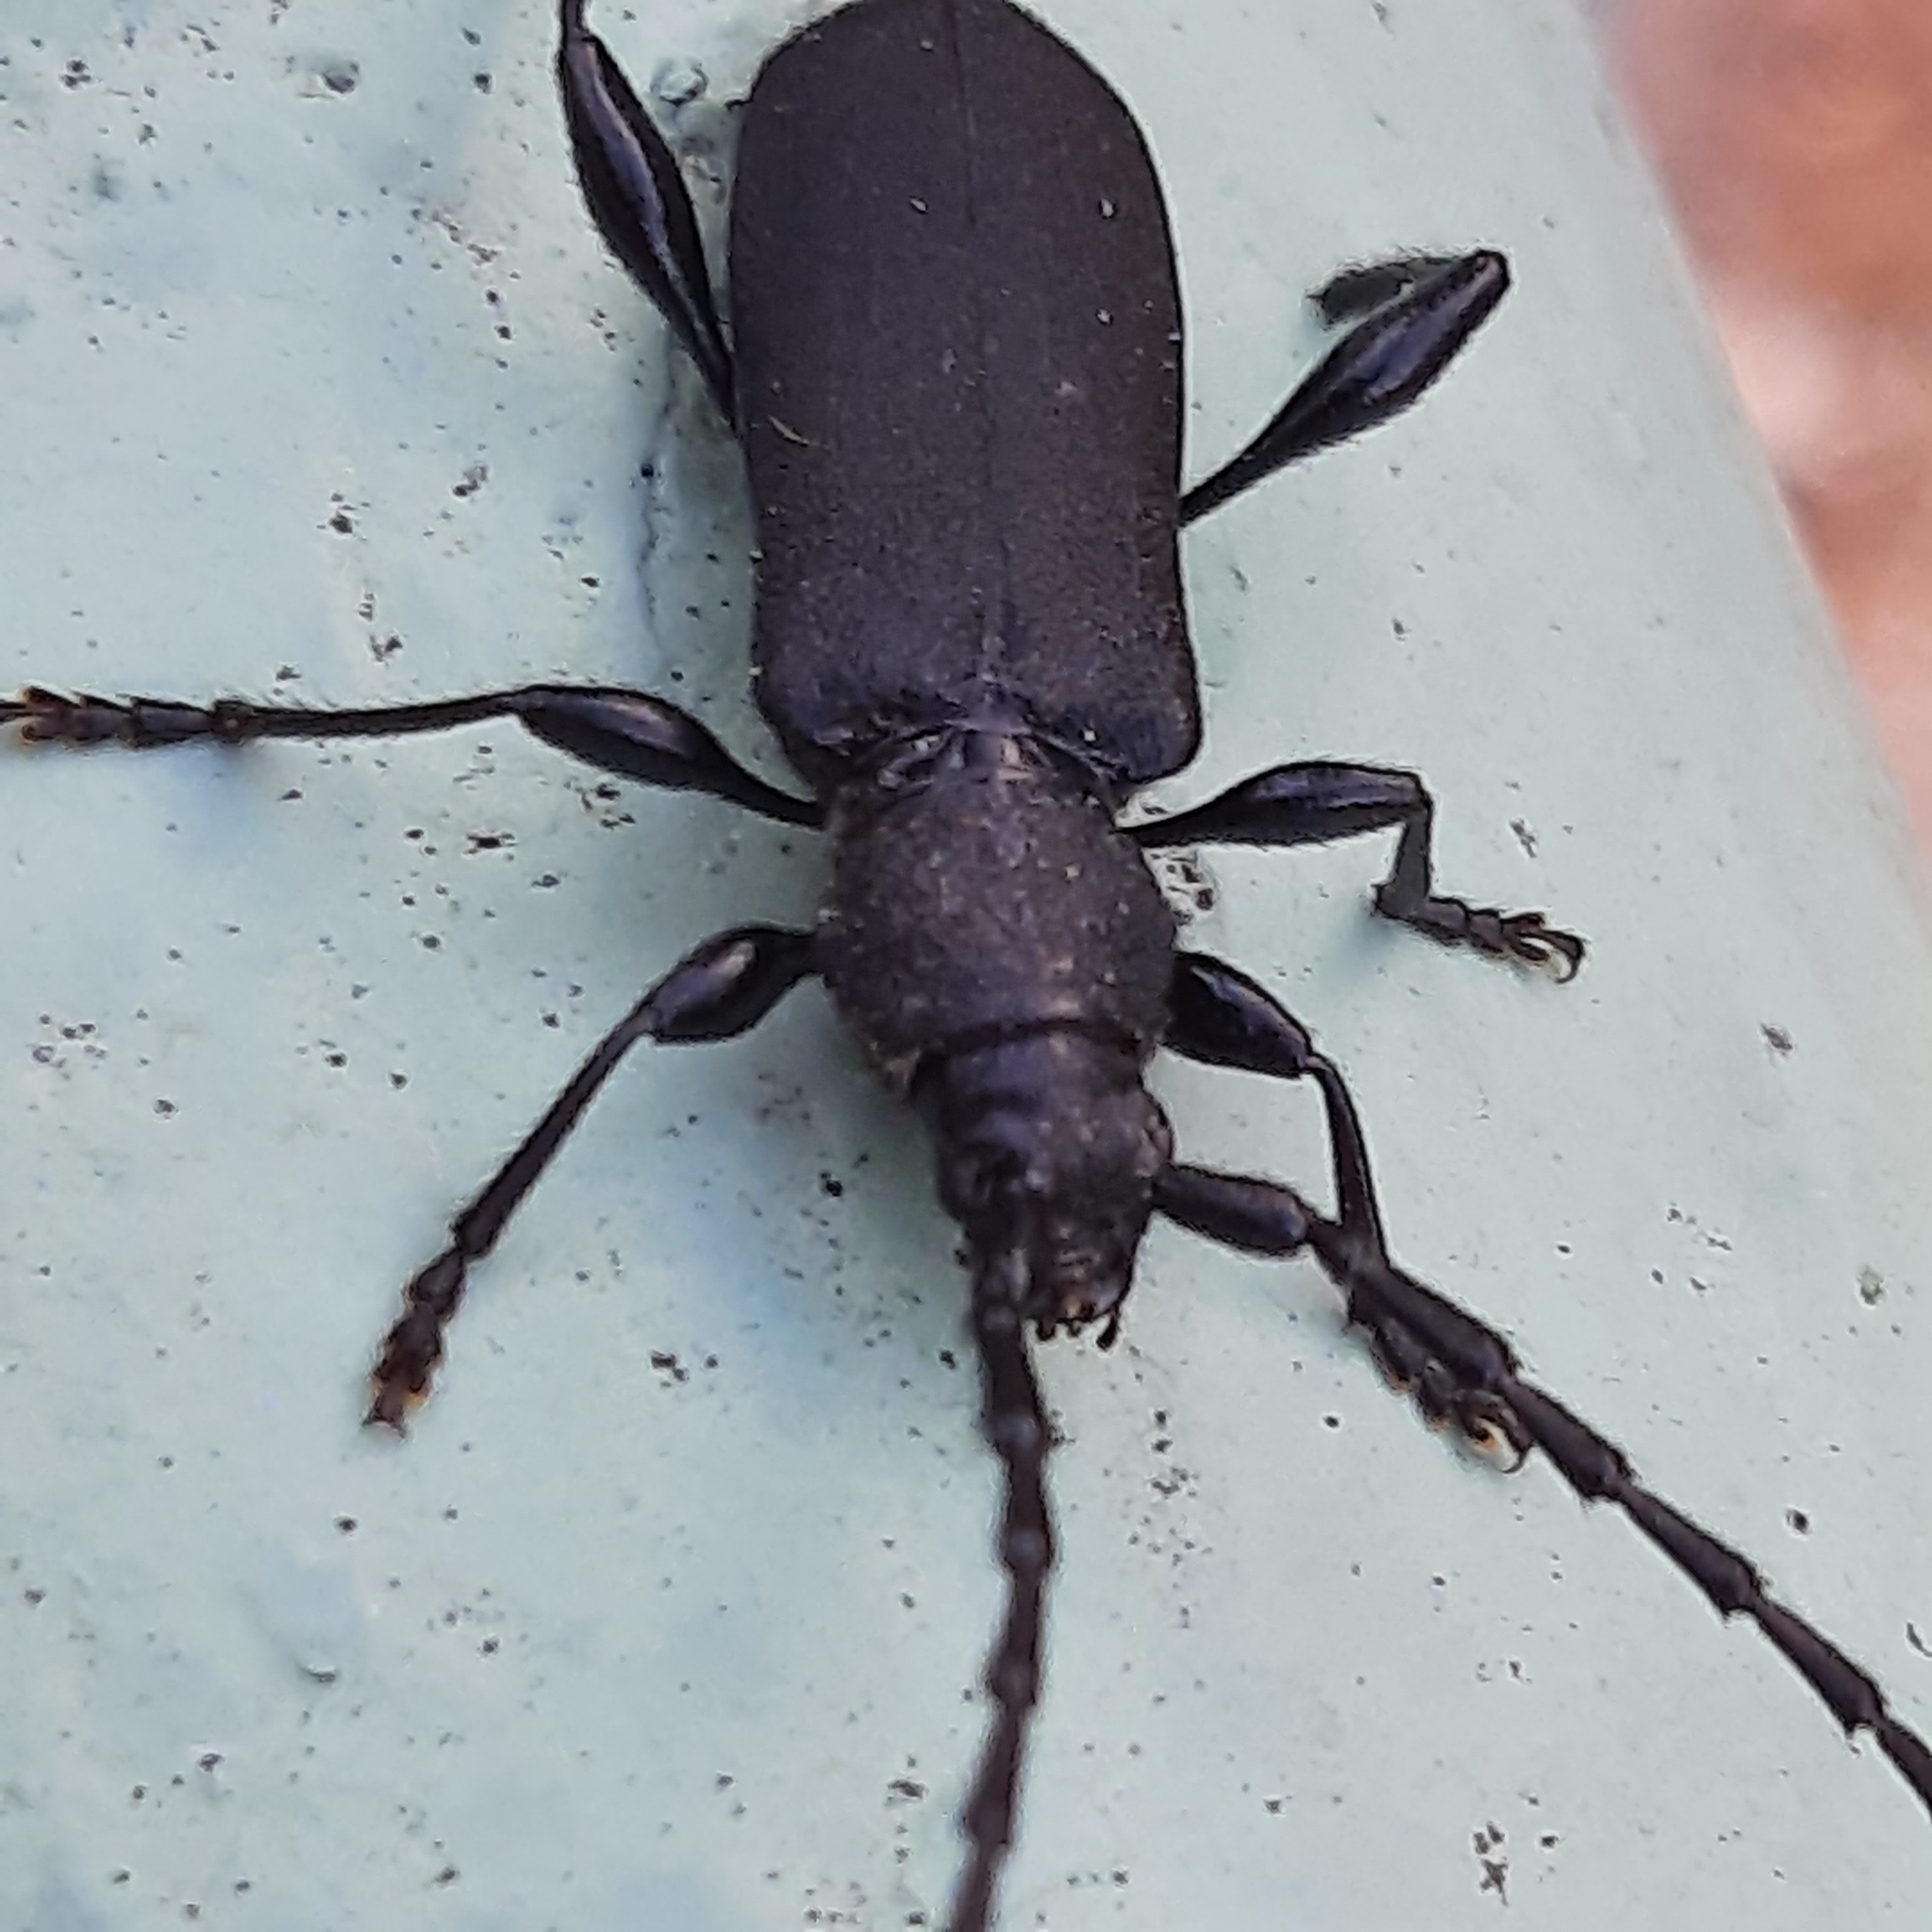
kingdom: Animalia
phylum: Arthropoda
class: Insecta
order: Coleoptera
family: Cerambycidae
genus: Ropalopus
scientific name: Ropalopus clavipes
